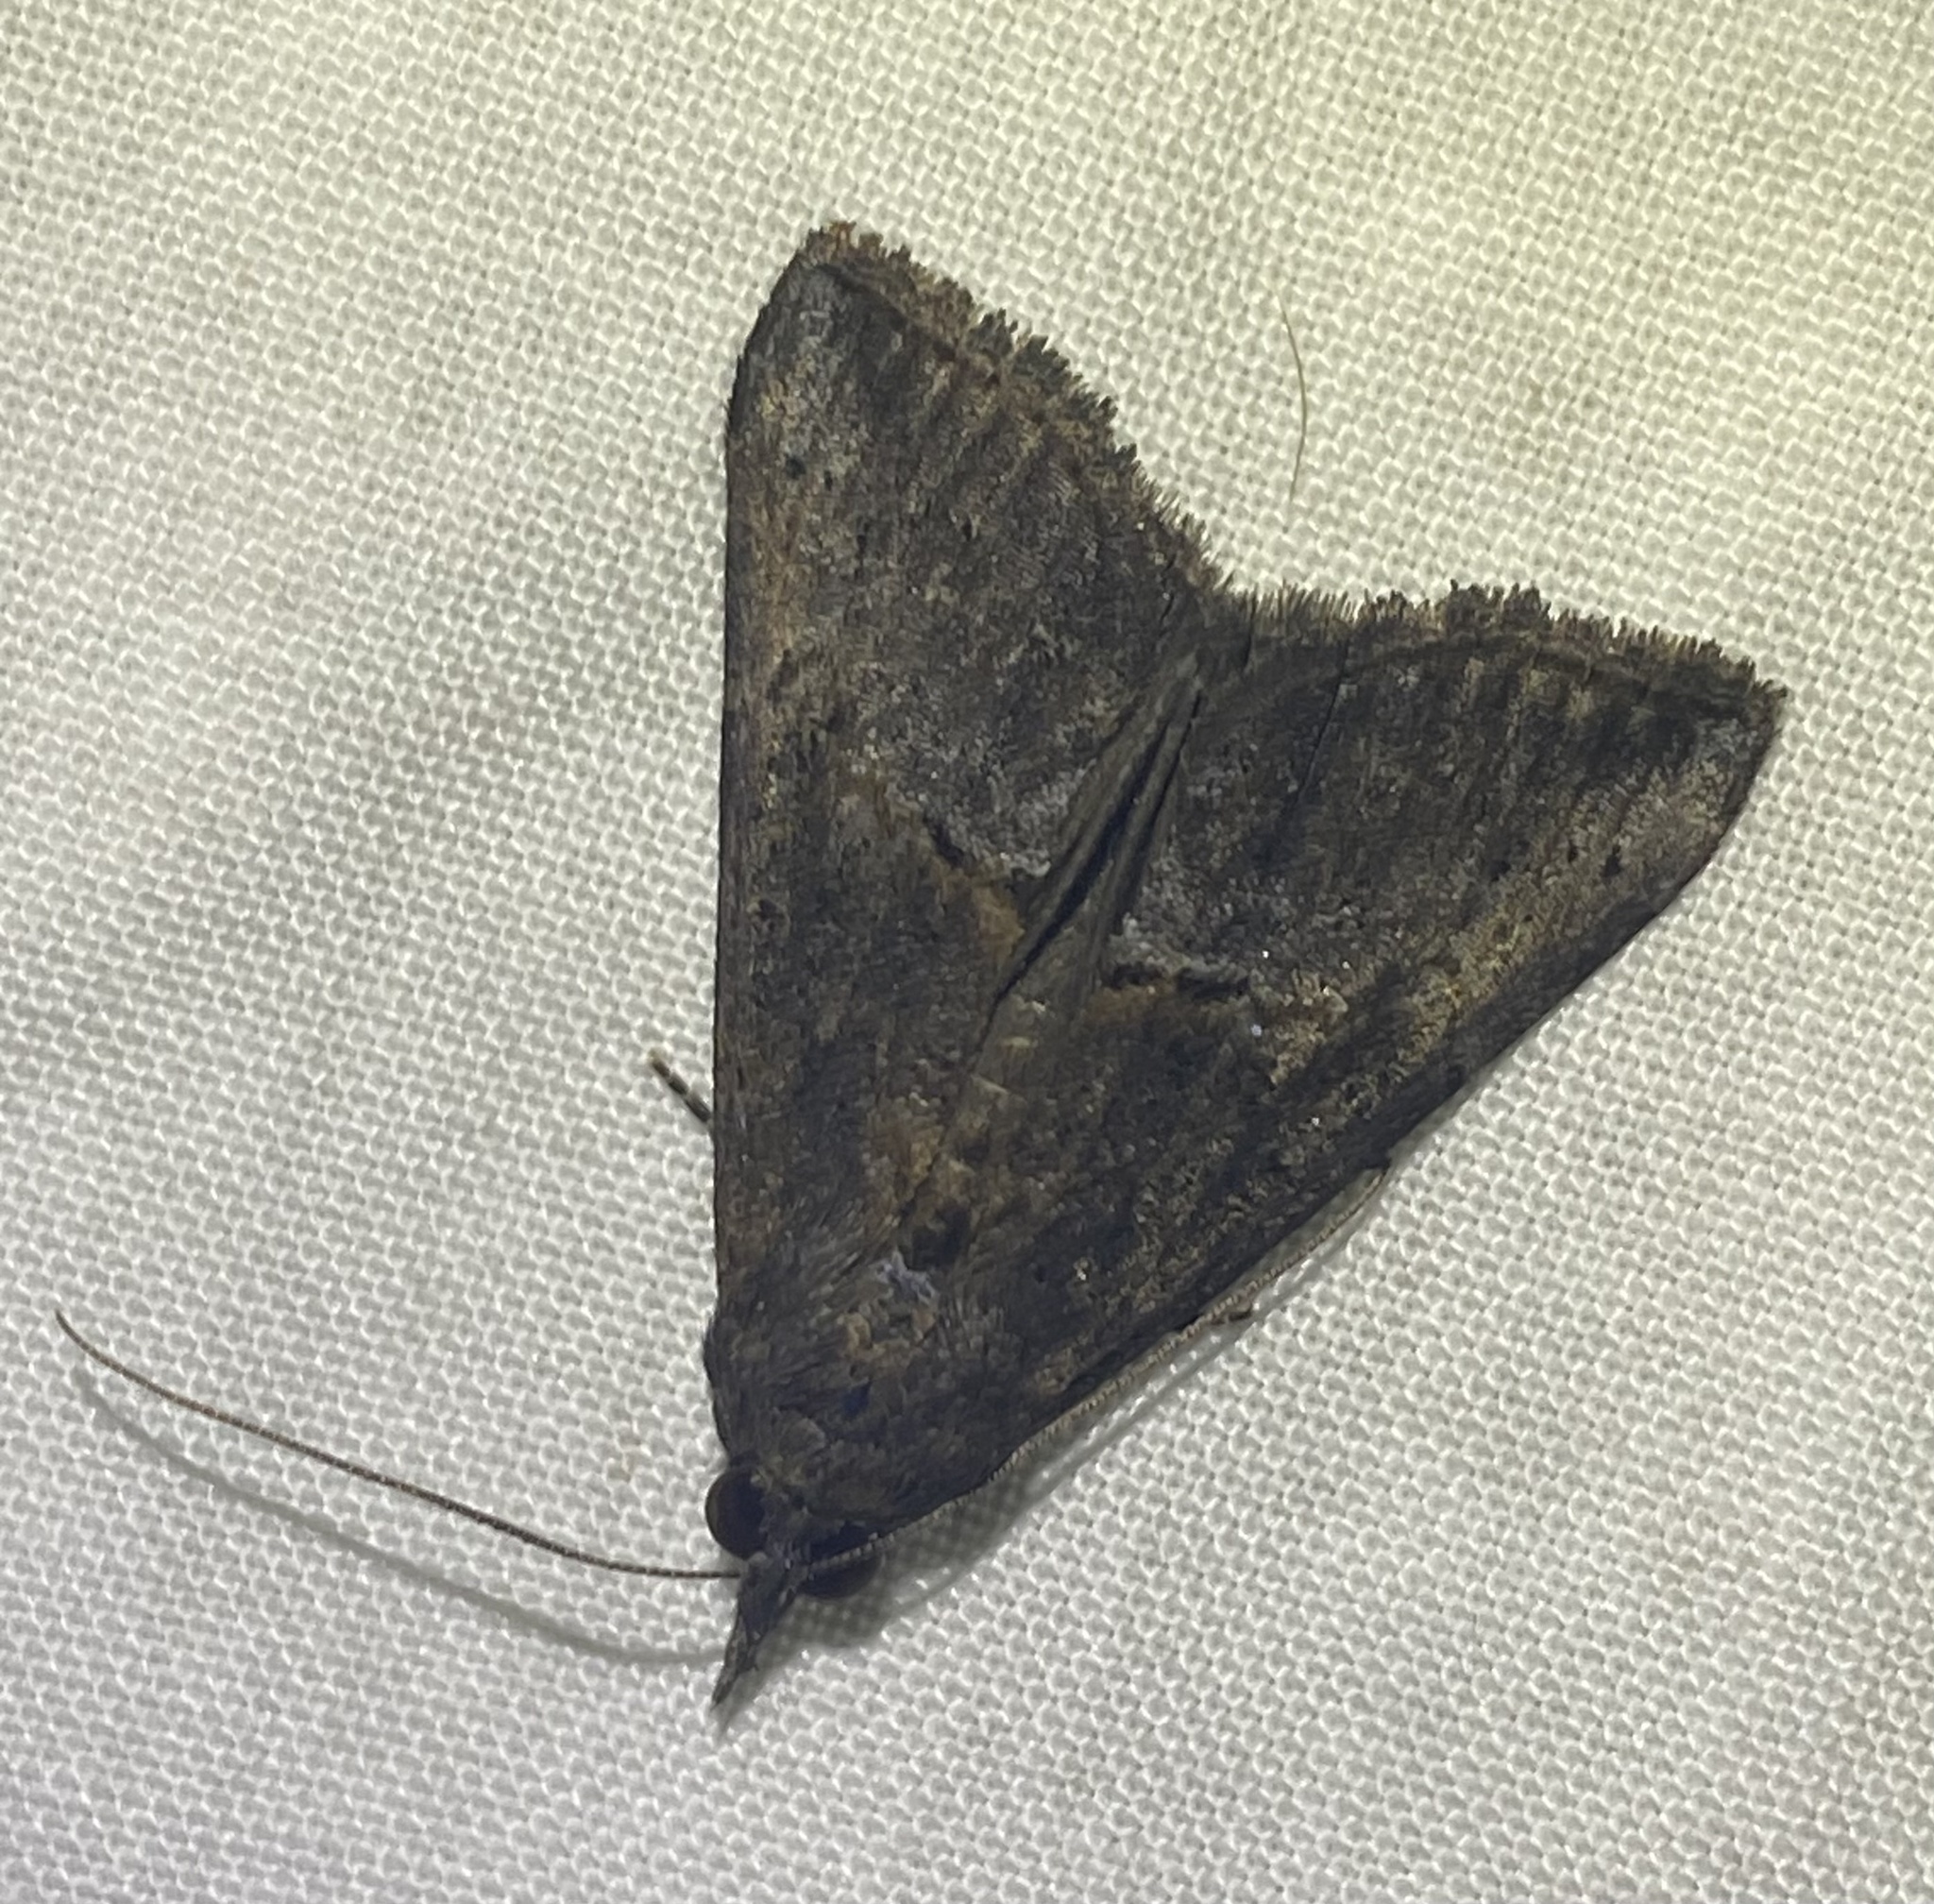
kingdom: Animalia
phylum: Arthropoda
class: Insecta
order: Lepidoptera
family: Erebidae
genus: Hypena
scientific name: Hypena scabra
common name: Green cloverworm
